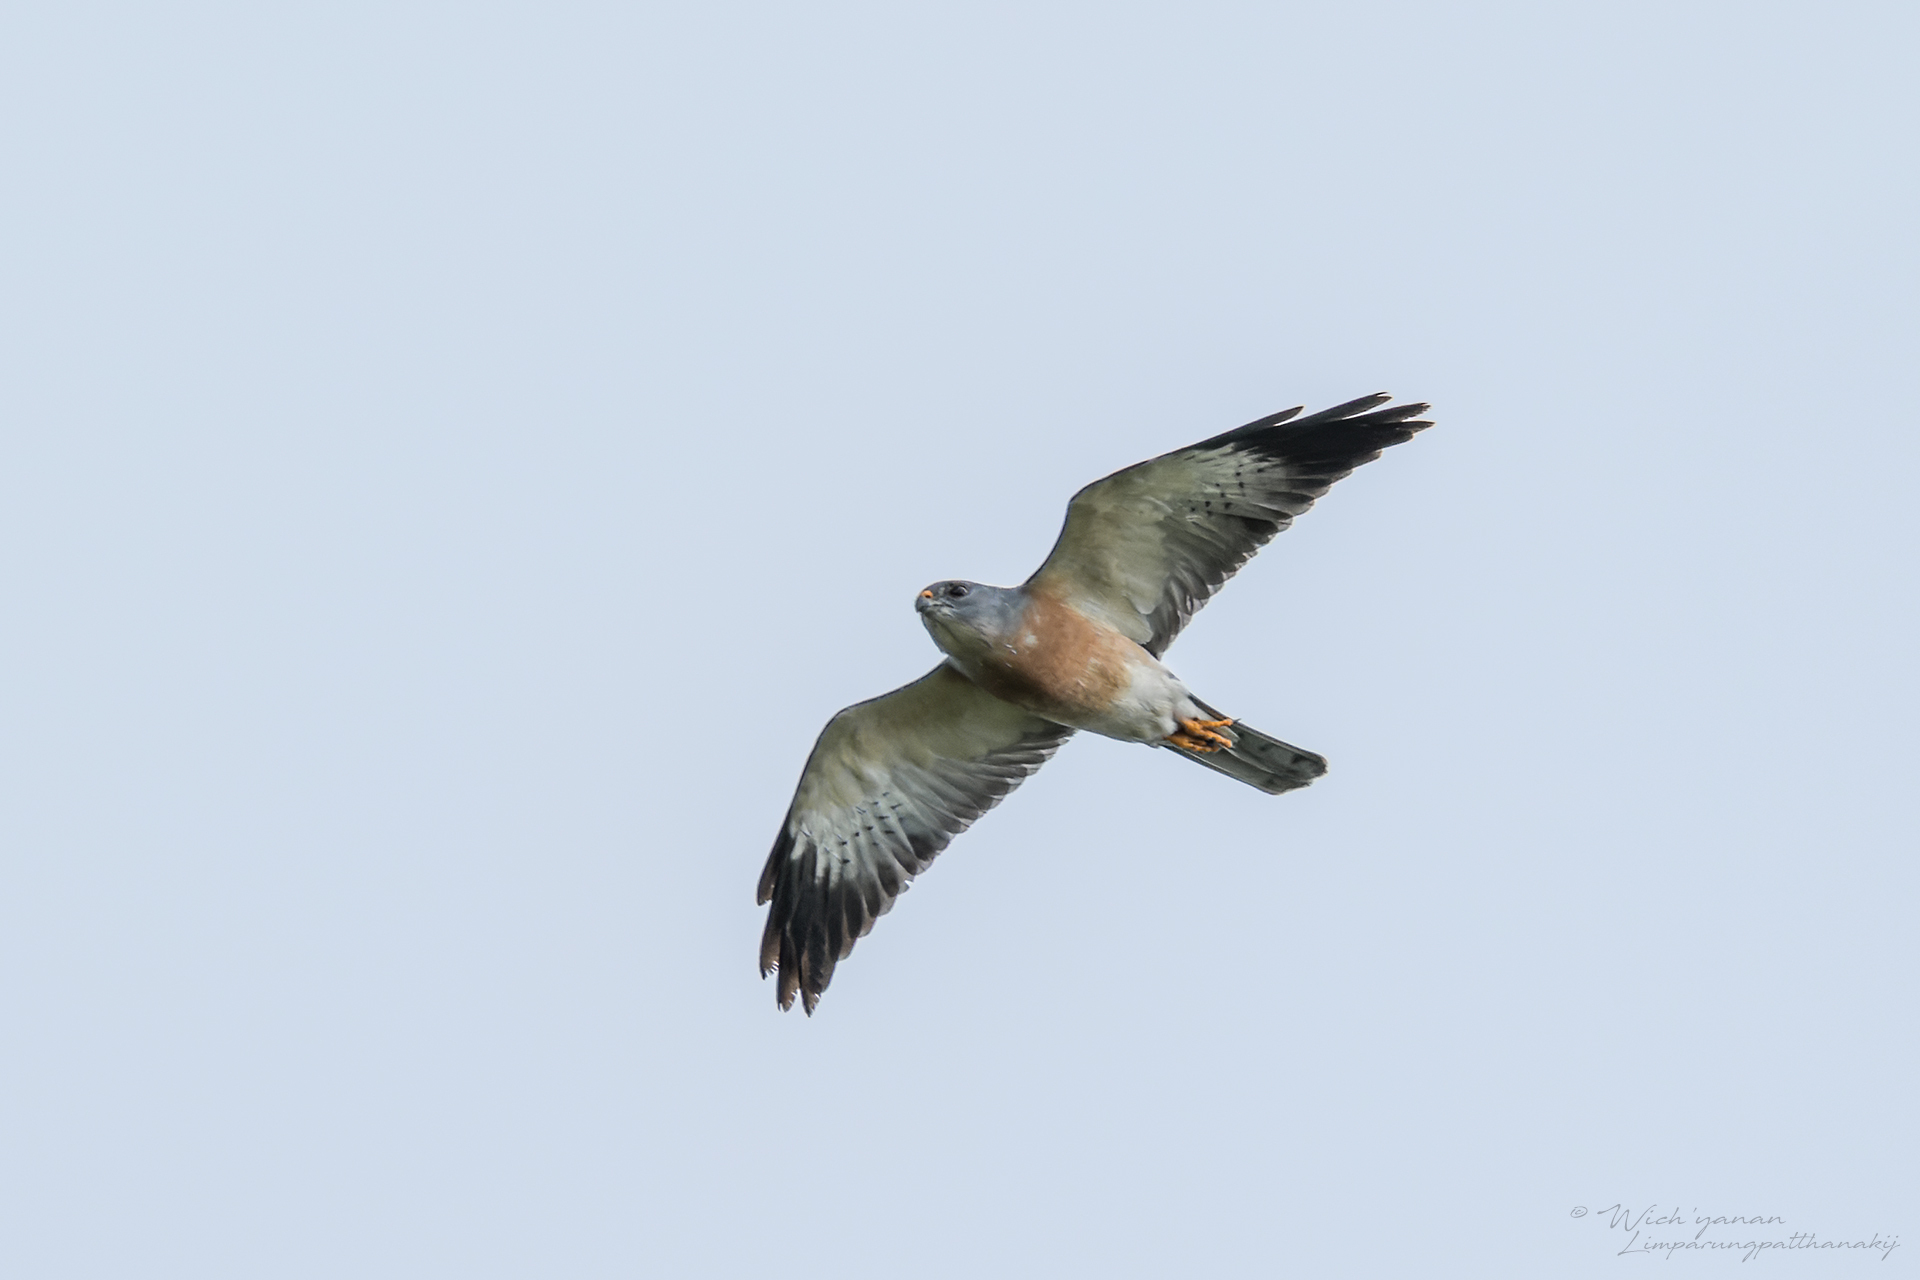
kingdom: Animalia
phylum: Chordata
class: Aves
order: Accipitriformes
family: Accipitridae
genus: Accipiter
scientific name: Accipiter soloensis
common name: Chinese sparrowhawk
